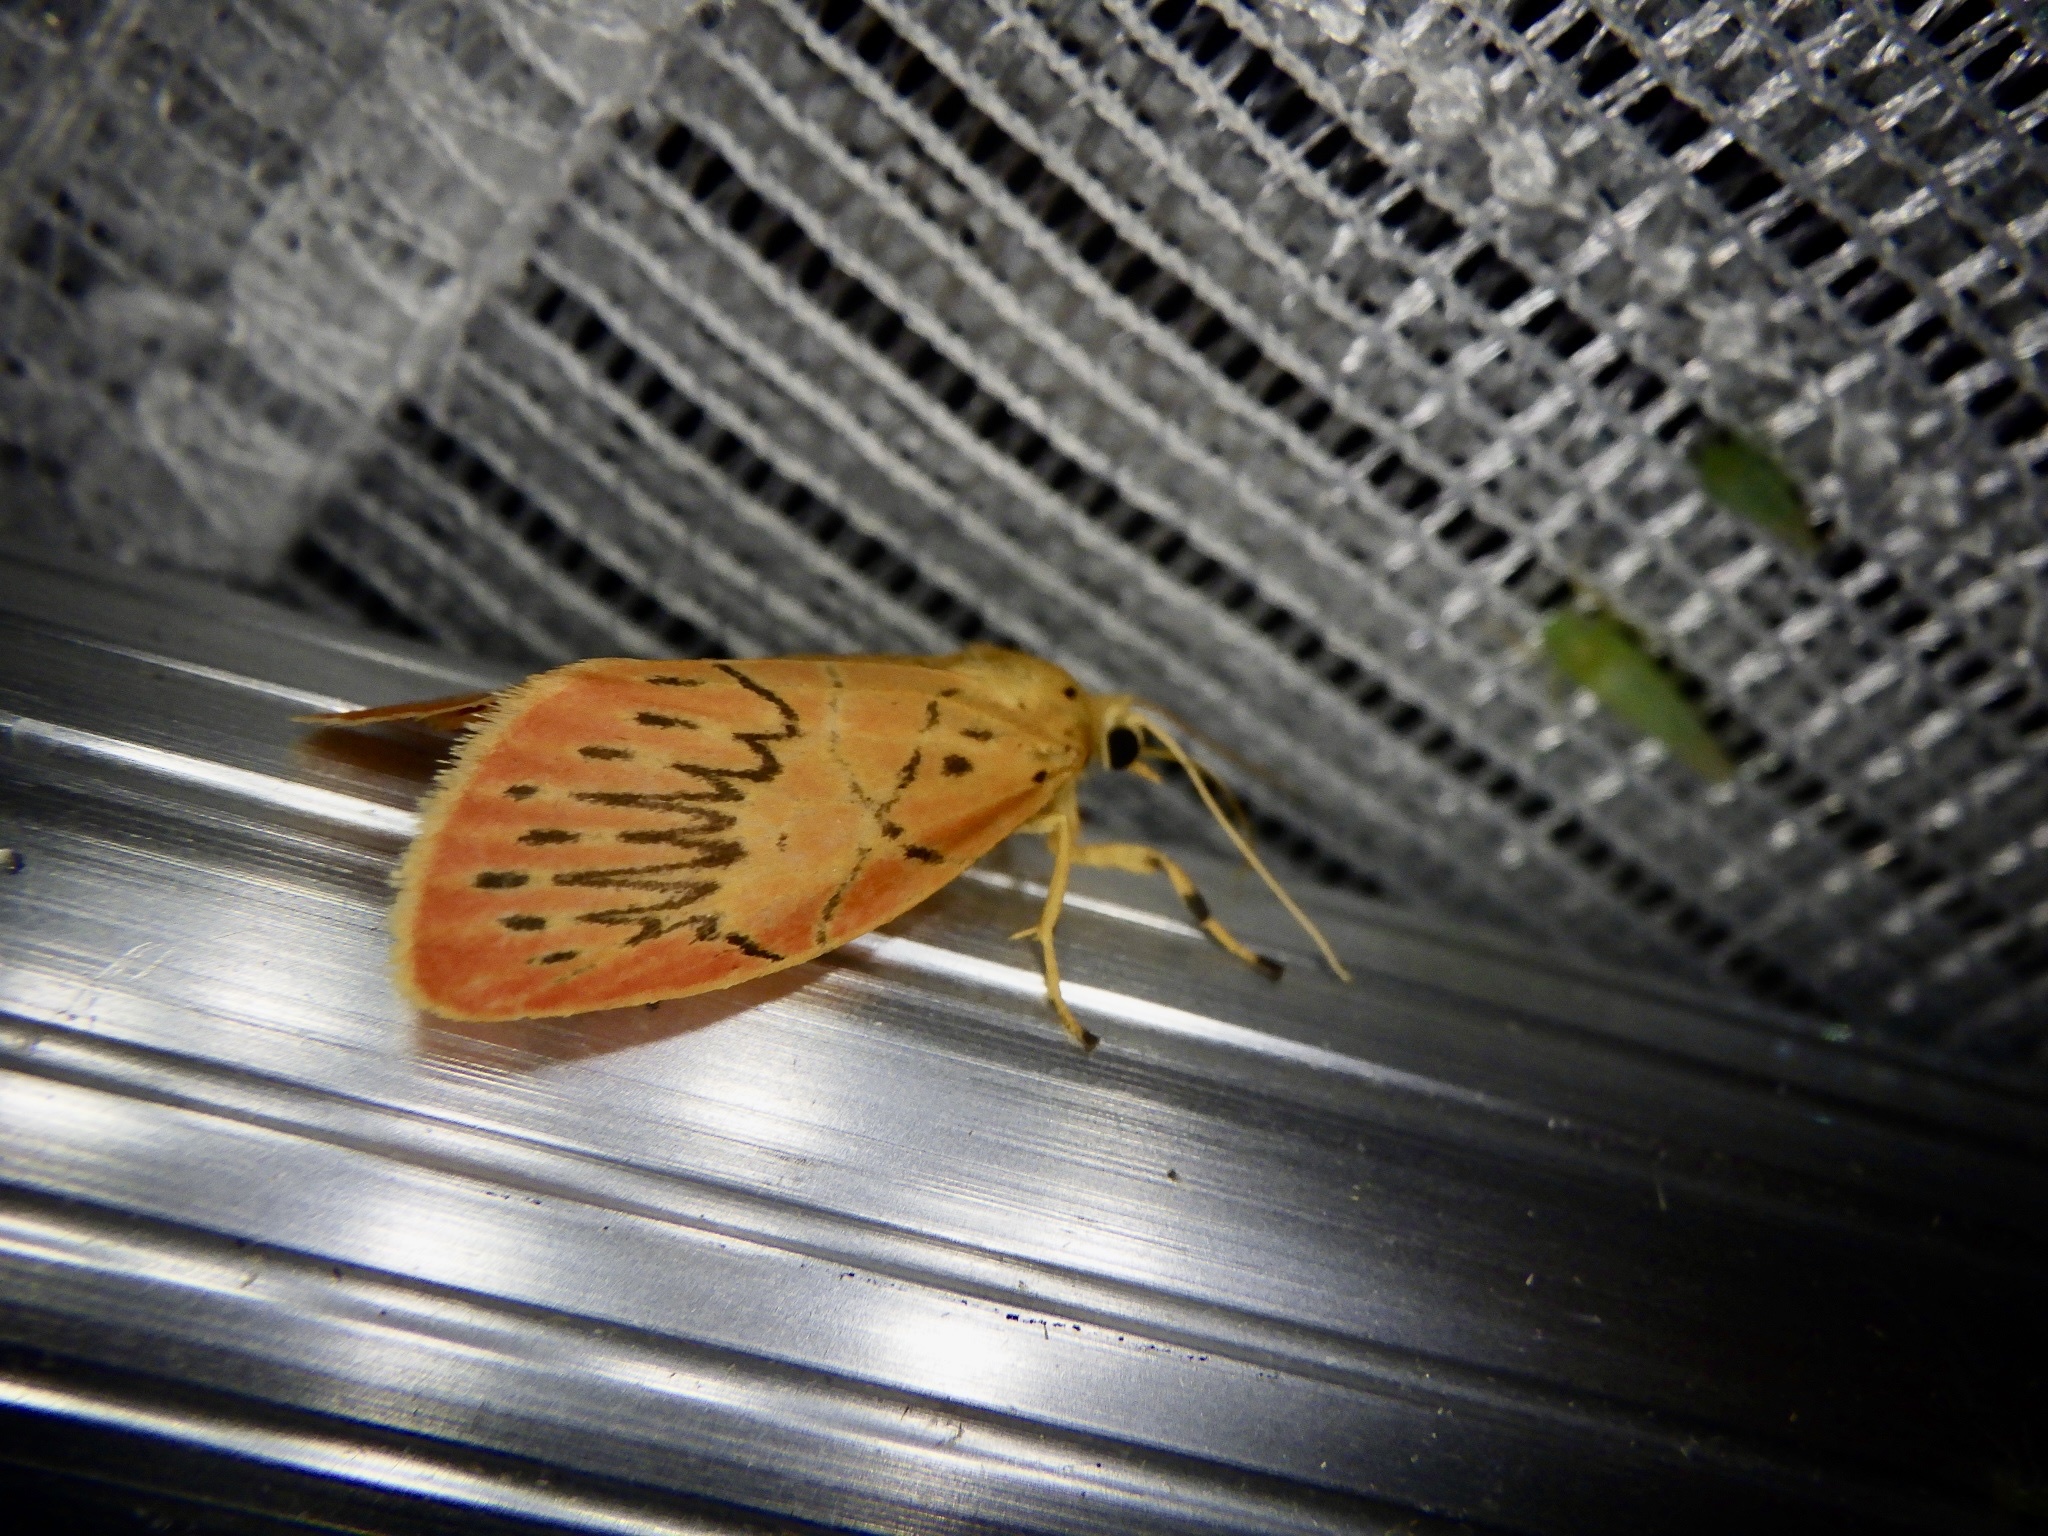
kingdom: Animalia
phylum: Arthropoda
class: Insecta
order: Lepidoptera
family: Erebidae
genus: Aberrasine
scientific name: Aberrasine aberrans
